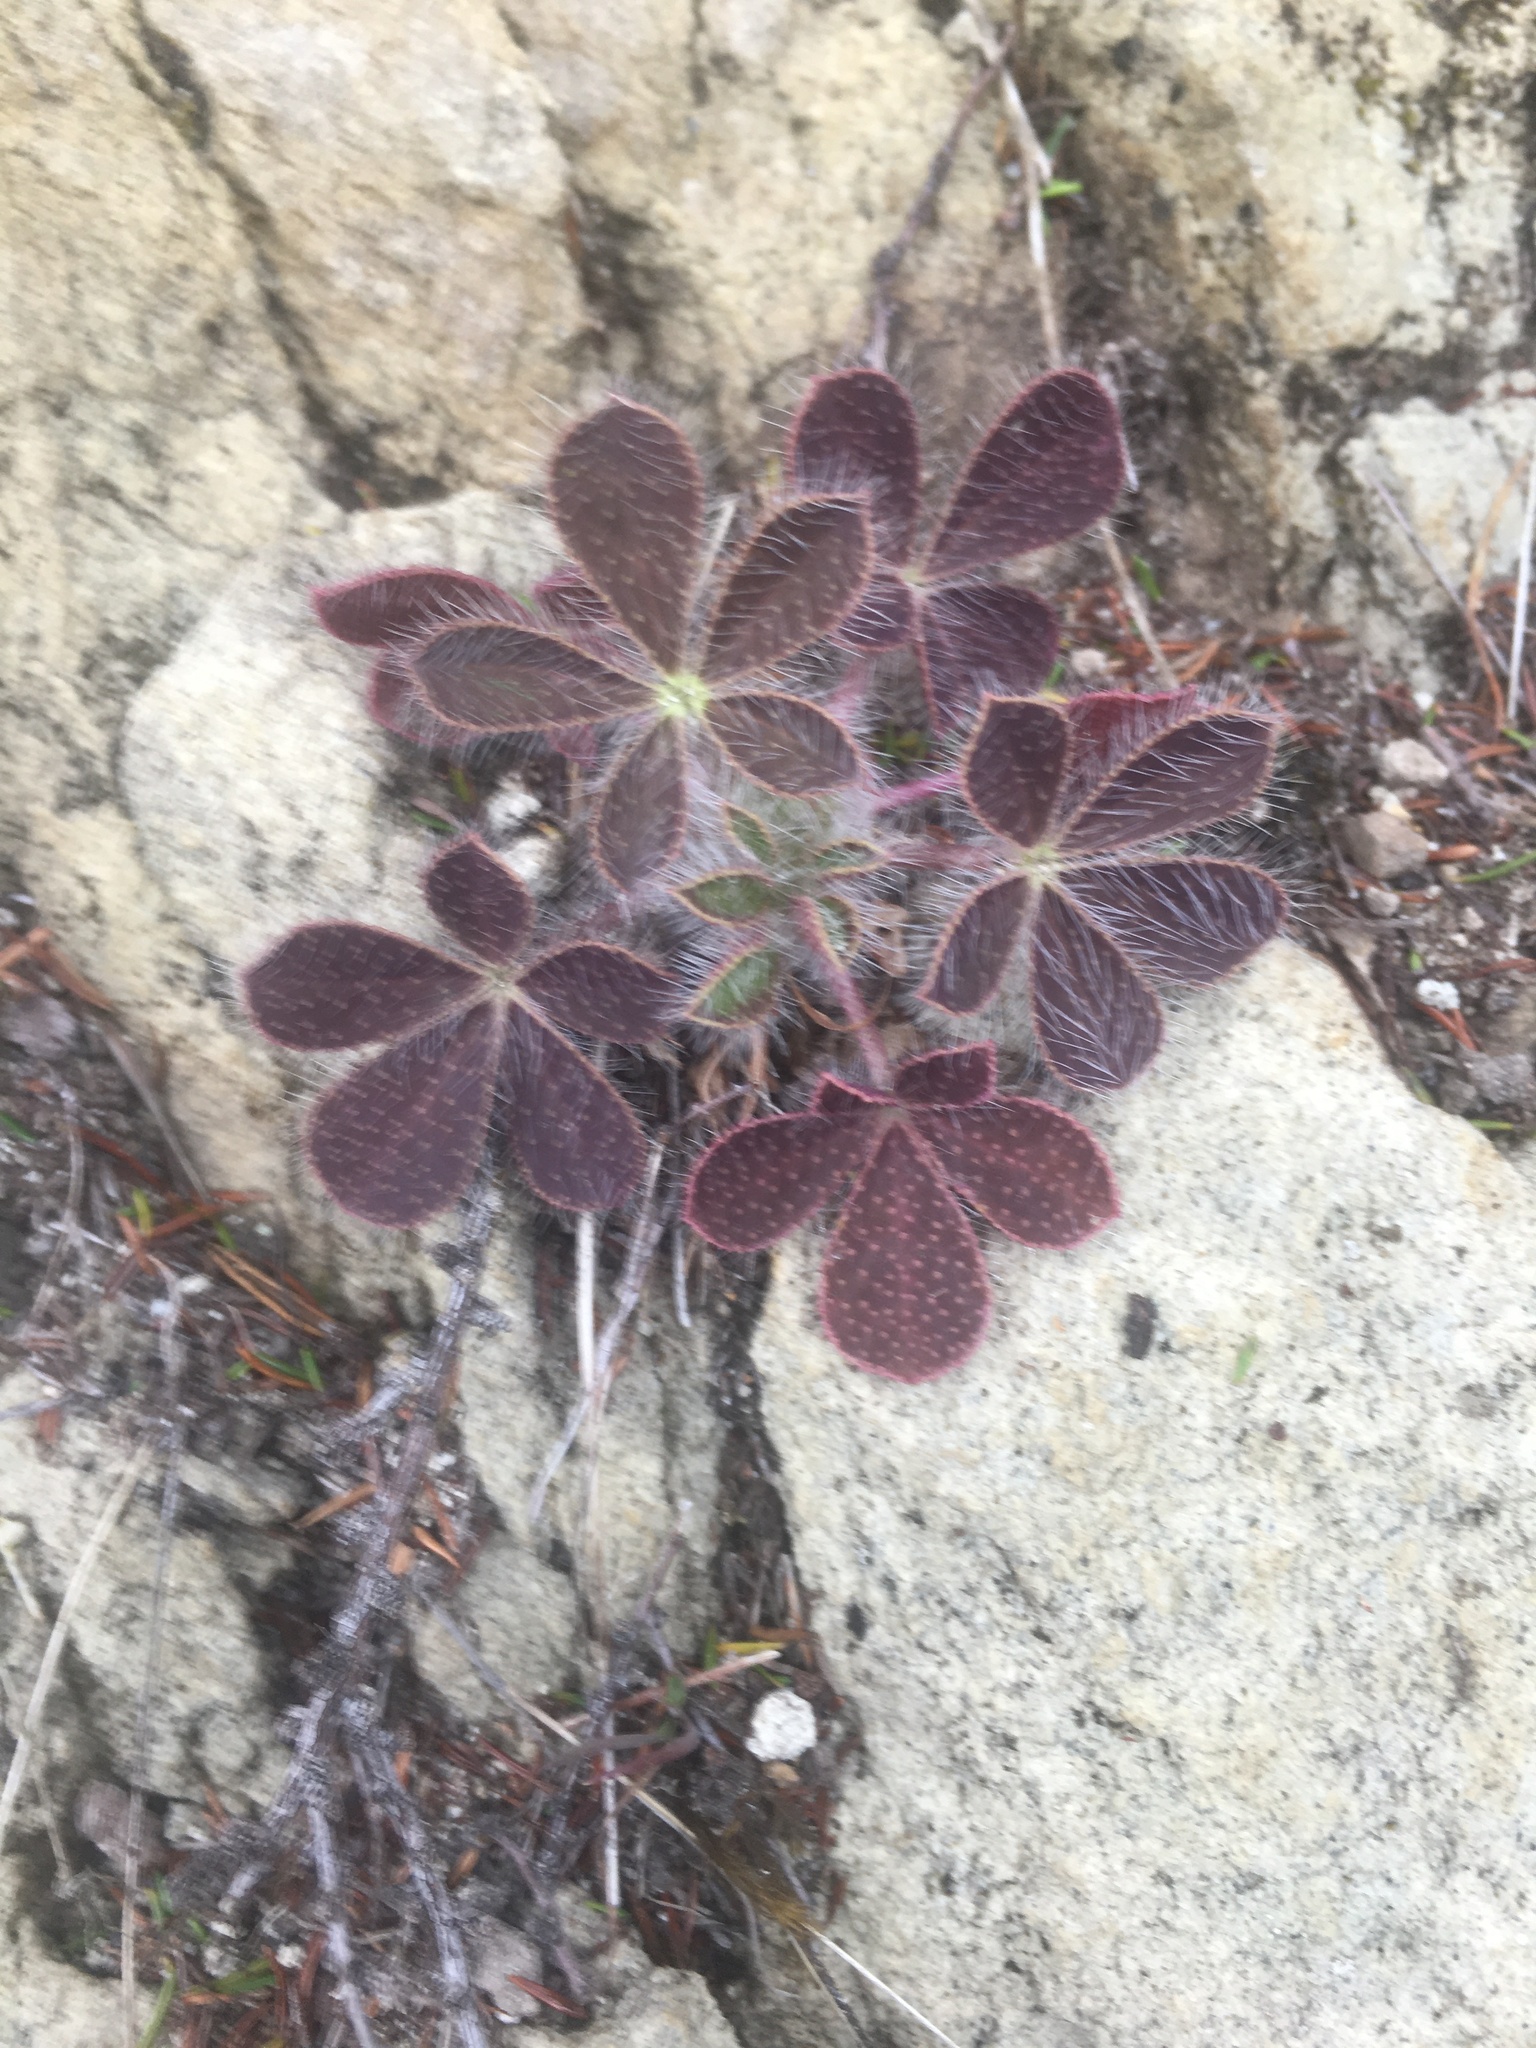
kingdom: Plantae
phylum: Tracheophyta
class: Magnoliopsida
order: Fabales
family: Fabaceae
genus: Lupinus
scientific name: Lupinus hirsutissimus
